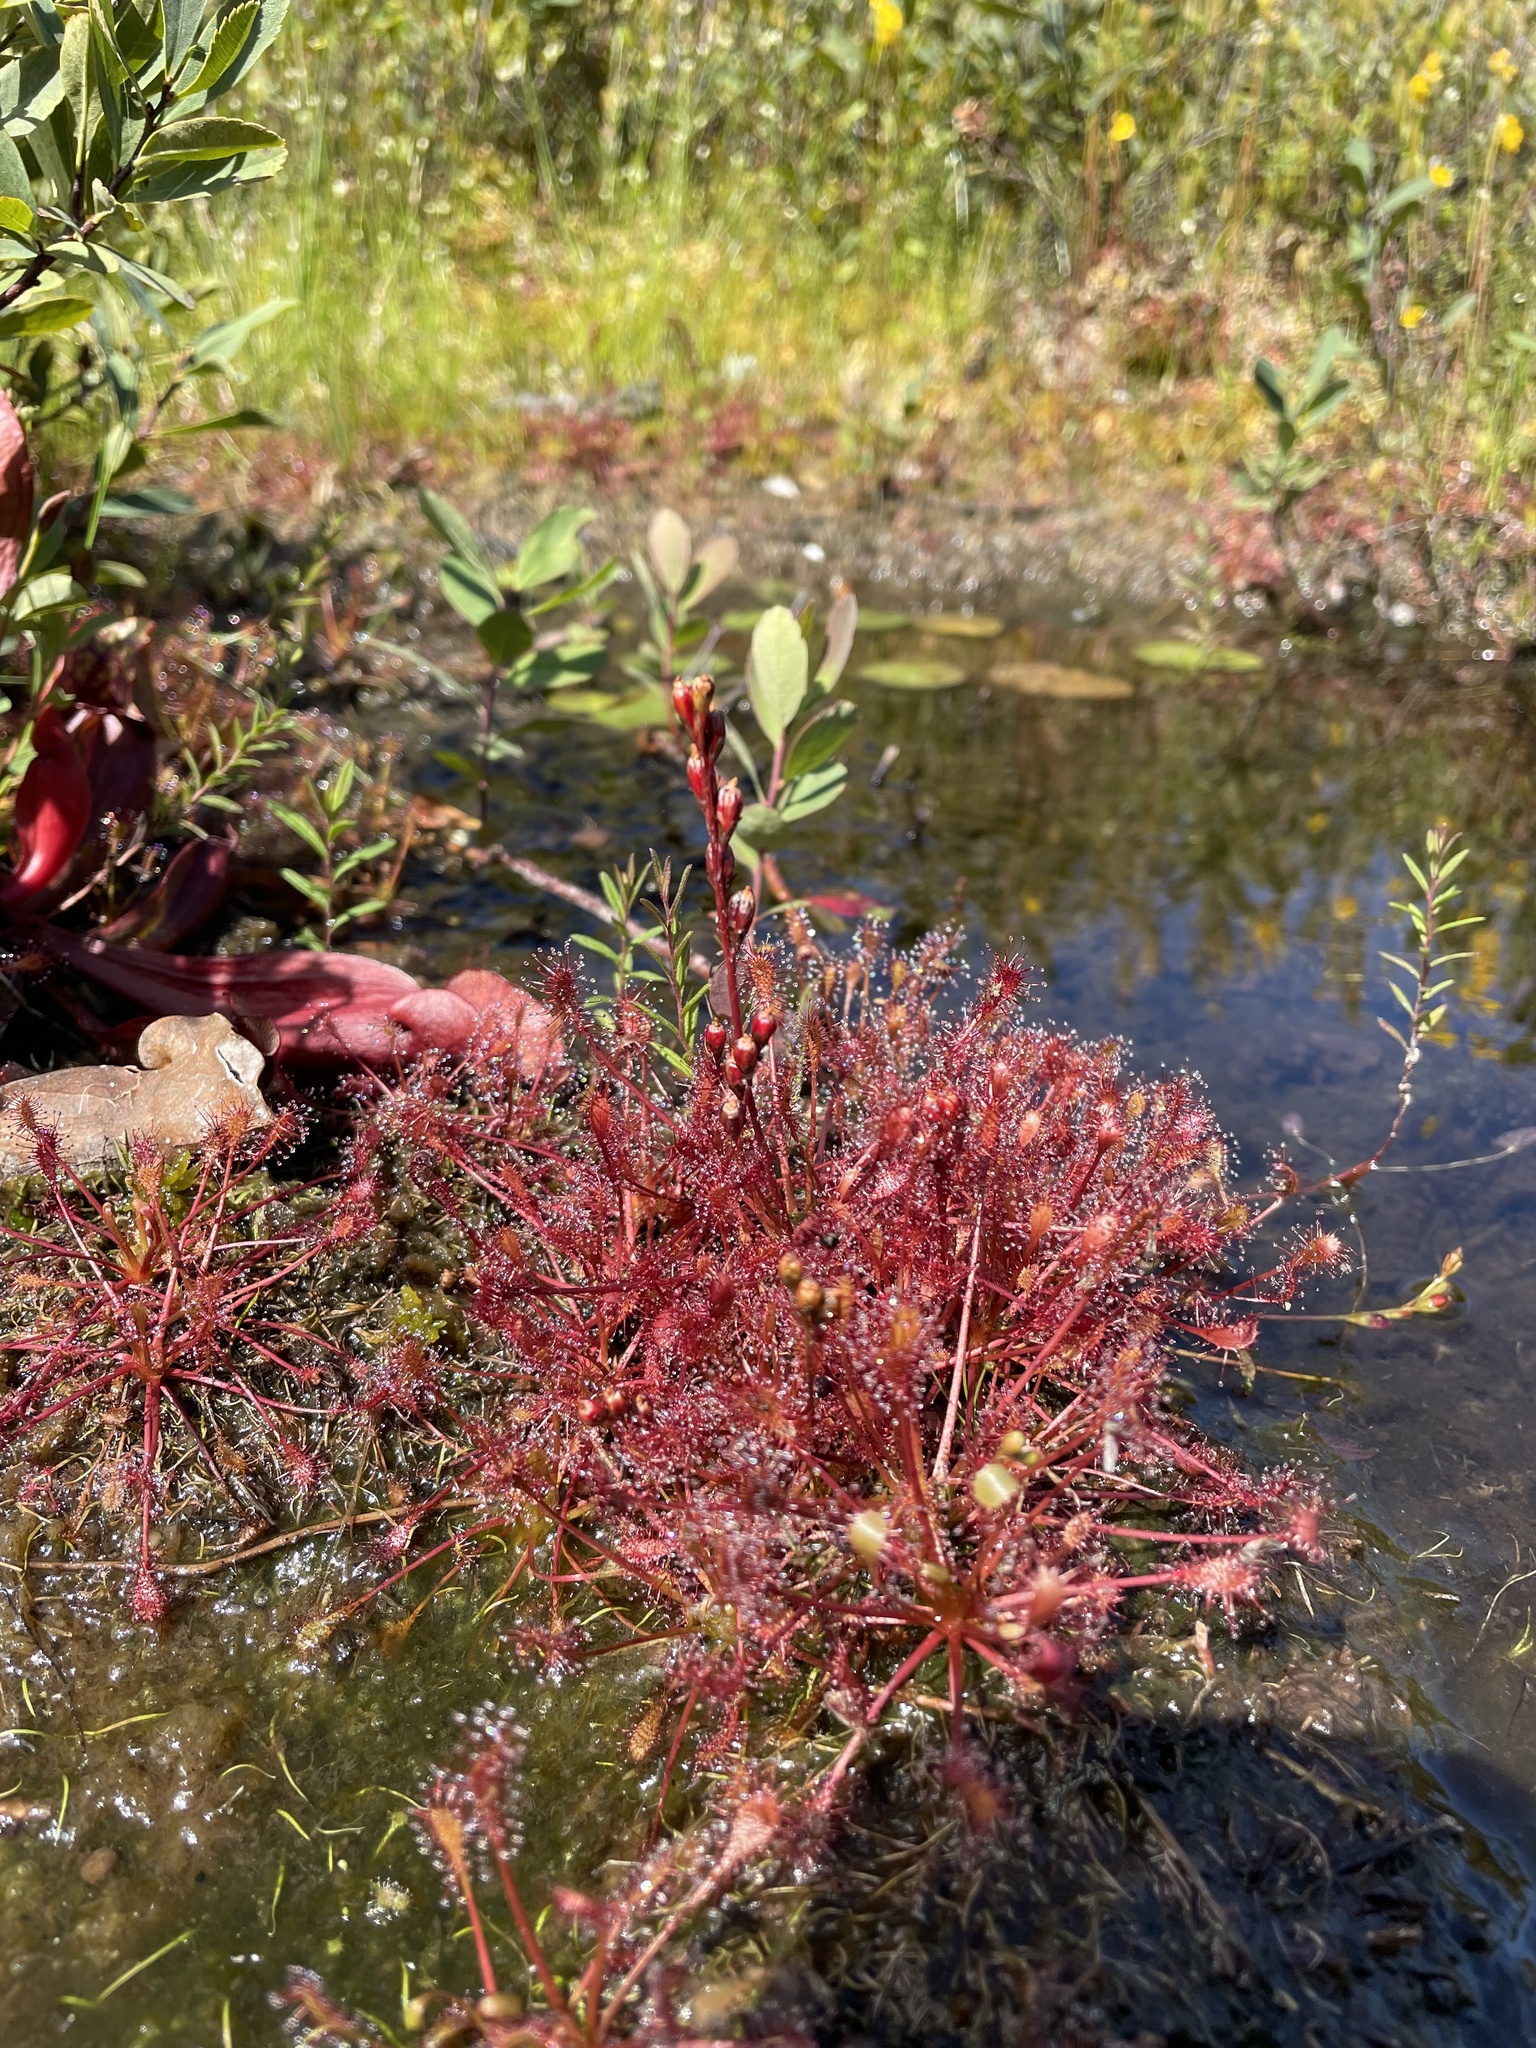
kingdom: Plantae
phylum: Tracheophyta
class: Magnoliopsida
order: Caryophyllales
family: Droseraceae
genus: Drosera
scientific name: Drosera intermedia
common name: Oblong-leaved sundew
